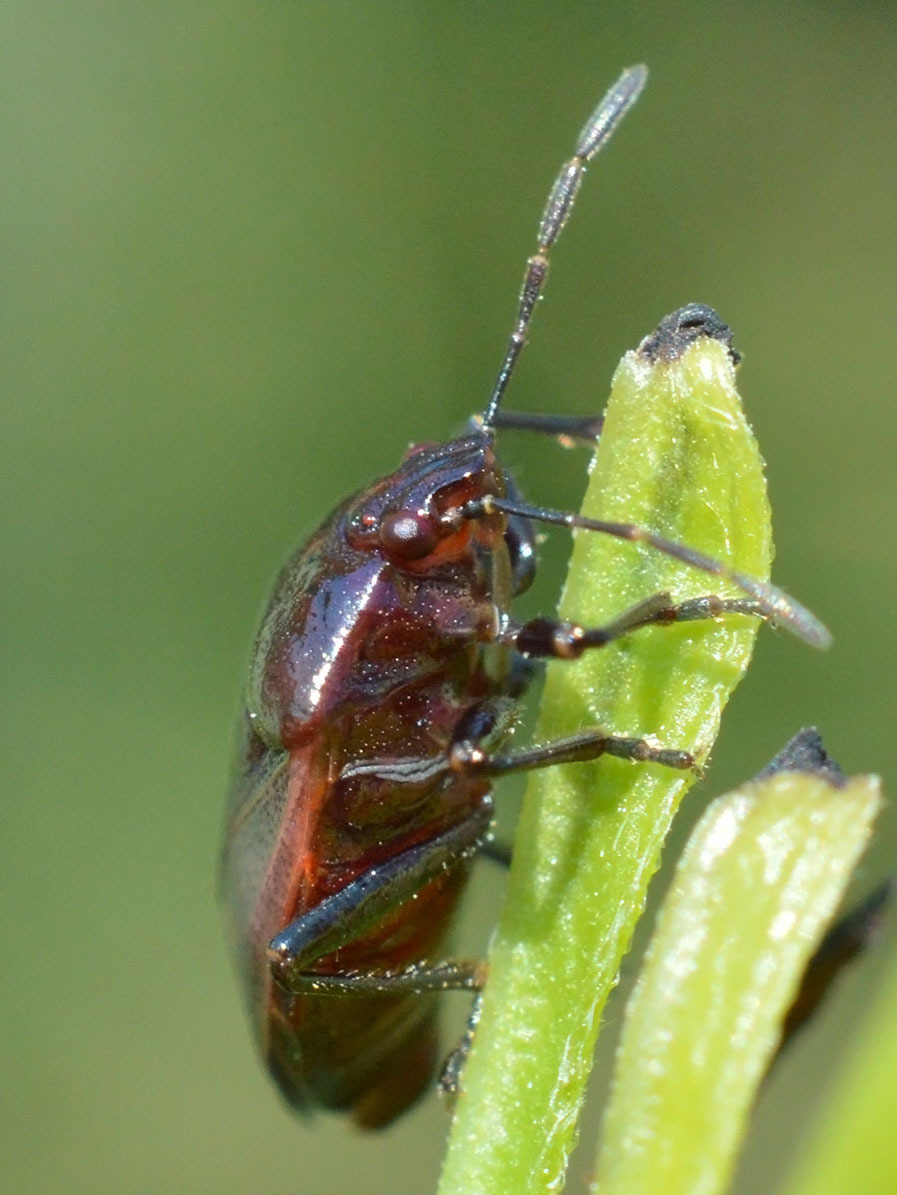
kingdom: Animalia
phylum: Arthropoda
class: Insecta
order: Hemiptera
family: Pentatomidae
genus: Zicrona
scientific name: Zicrona caerulea
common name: Blue shieldbug
